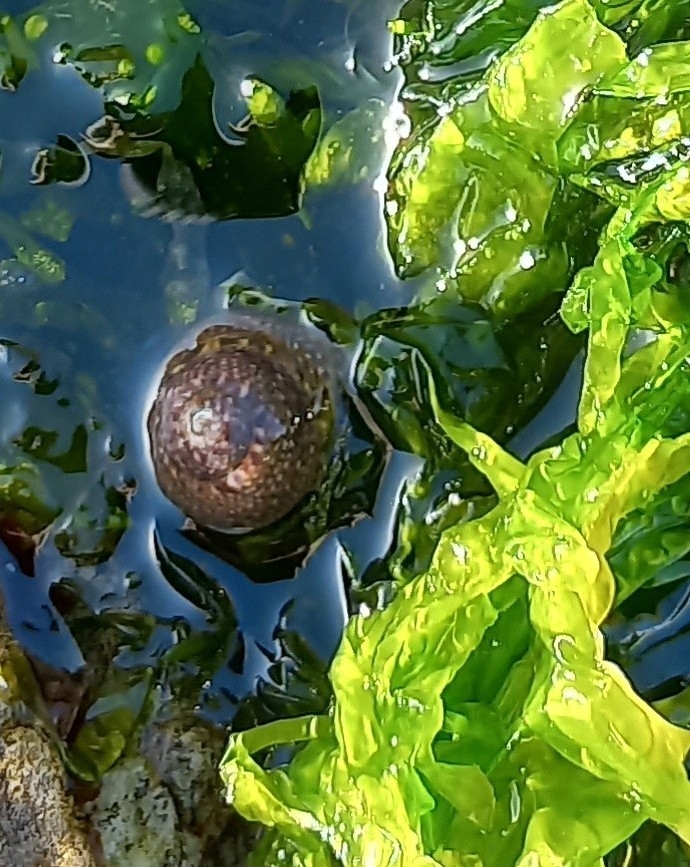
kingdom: Animalia
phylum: Mollusca
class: Gastropoda
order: Trochida
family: Trochidae
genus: Oxystele
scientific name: Oxystele impervia
